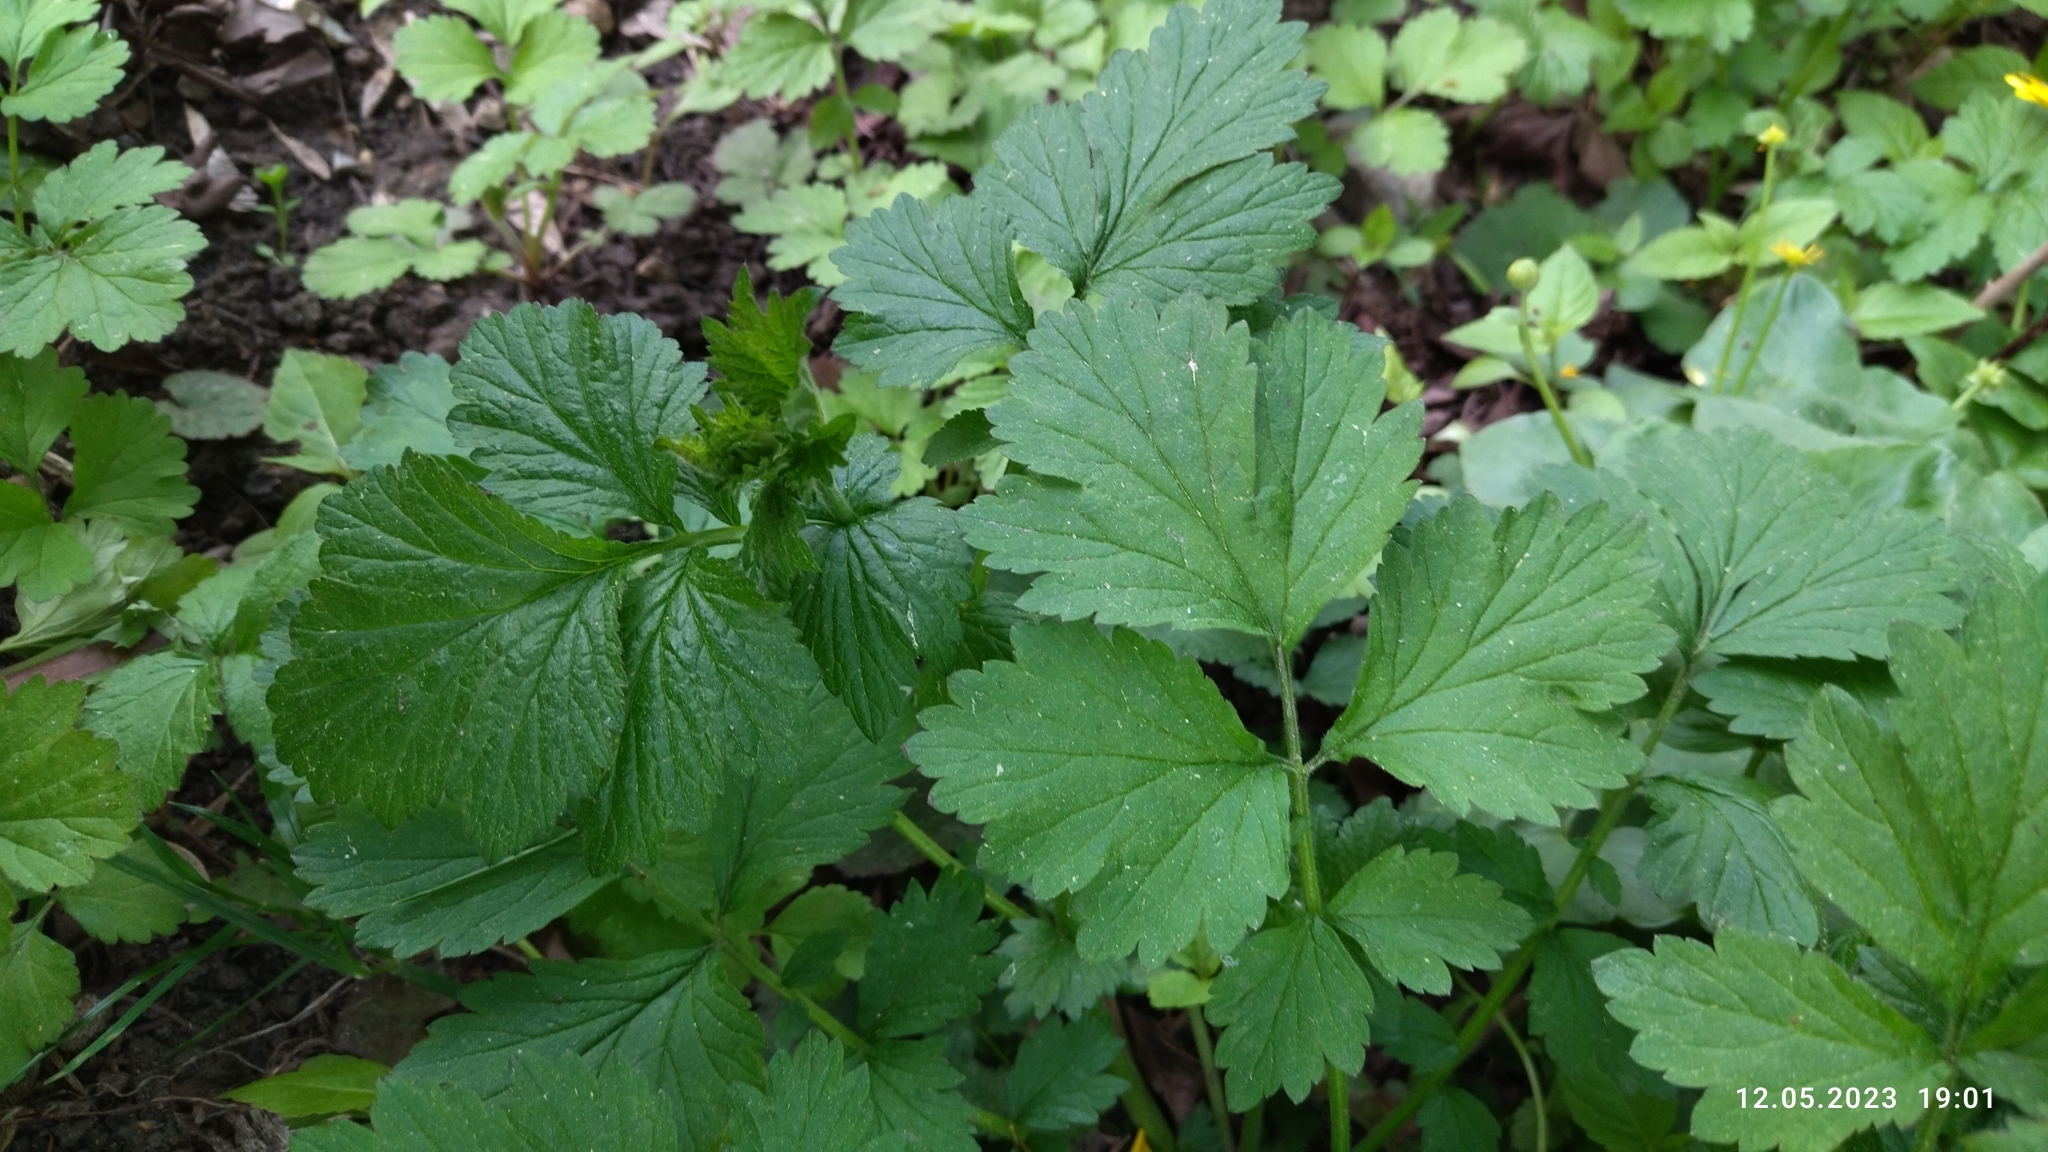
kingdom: Plantae
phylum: Tracheophyta
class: Magnoliopsida
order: Rosales
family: Rosaceae
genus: Geum
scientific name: Geum urbanum
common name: Wood avens
